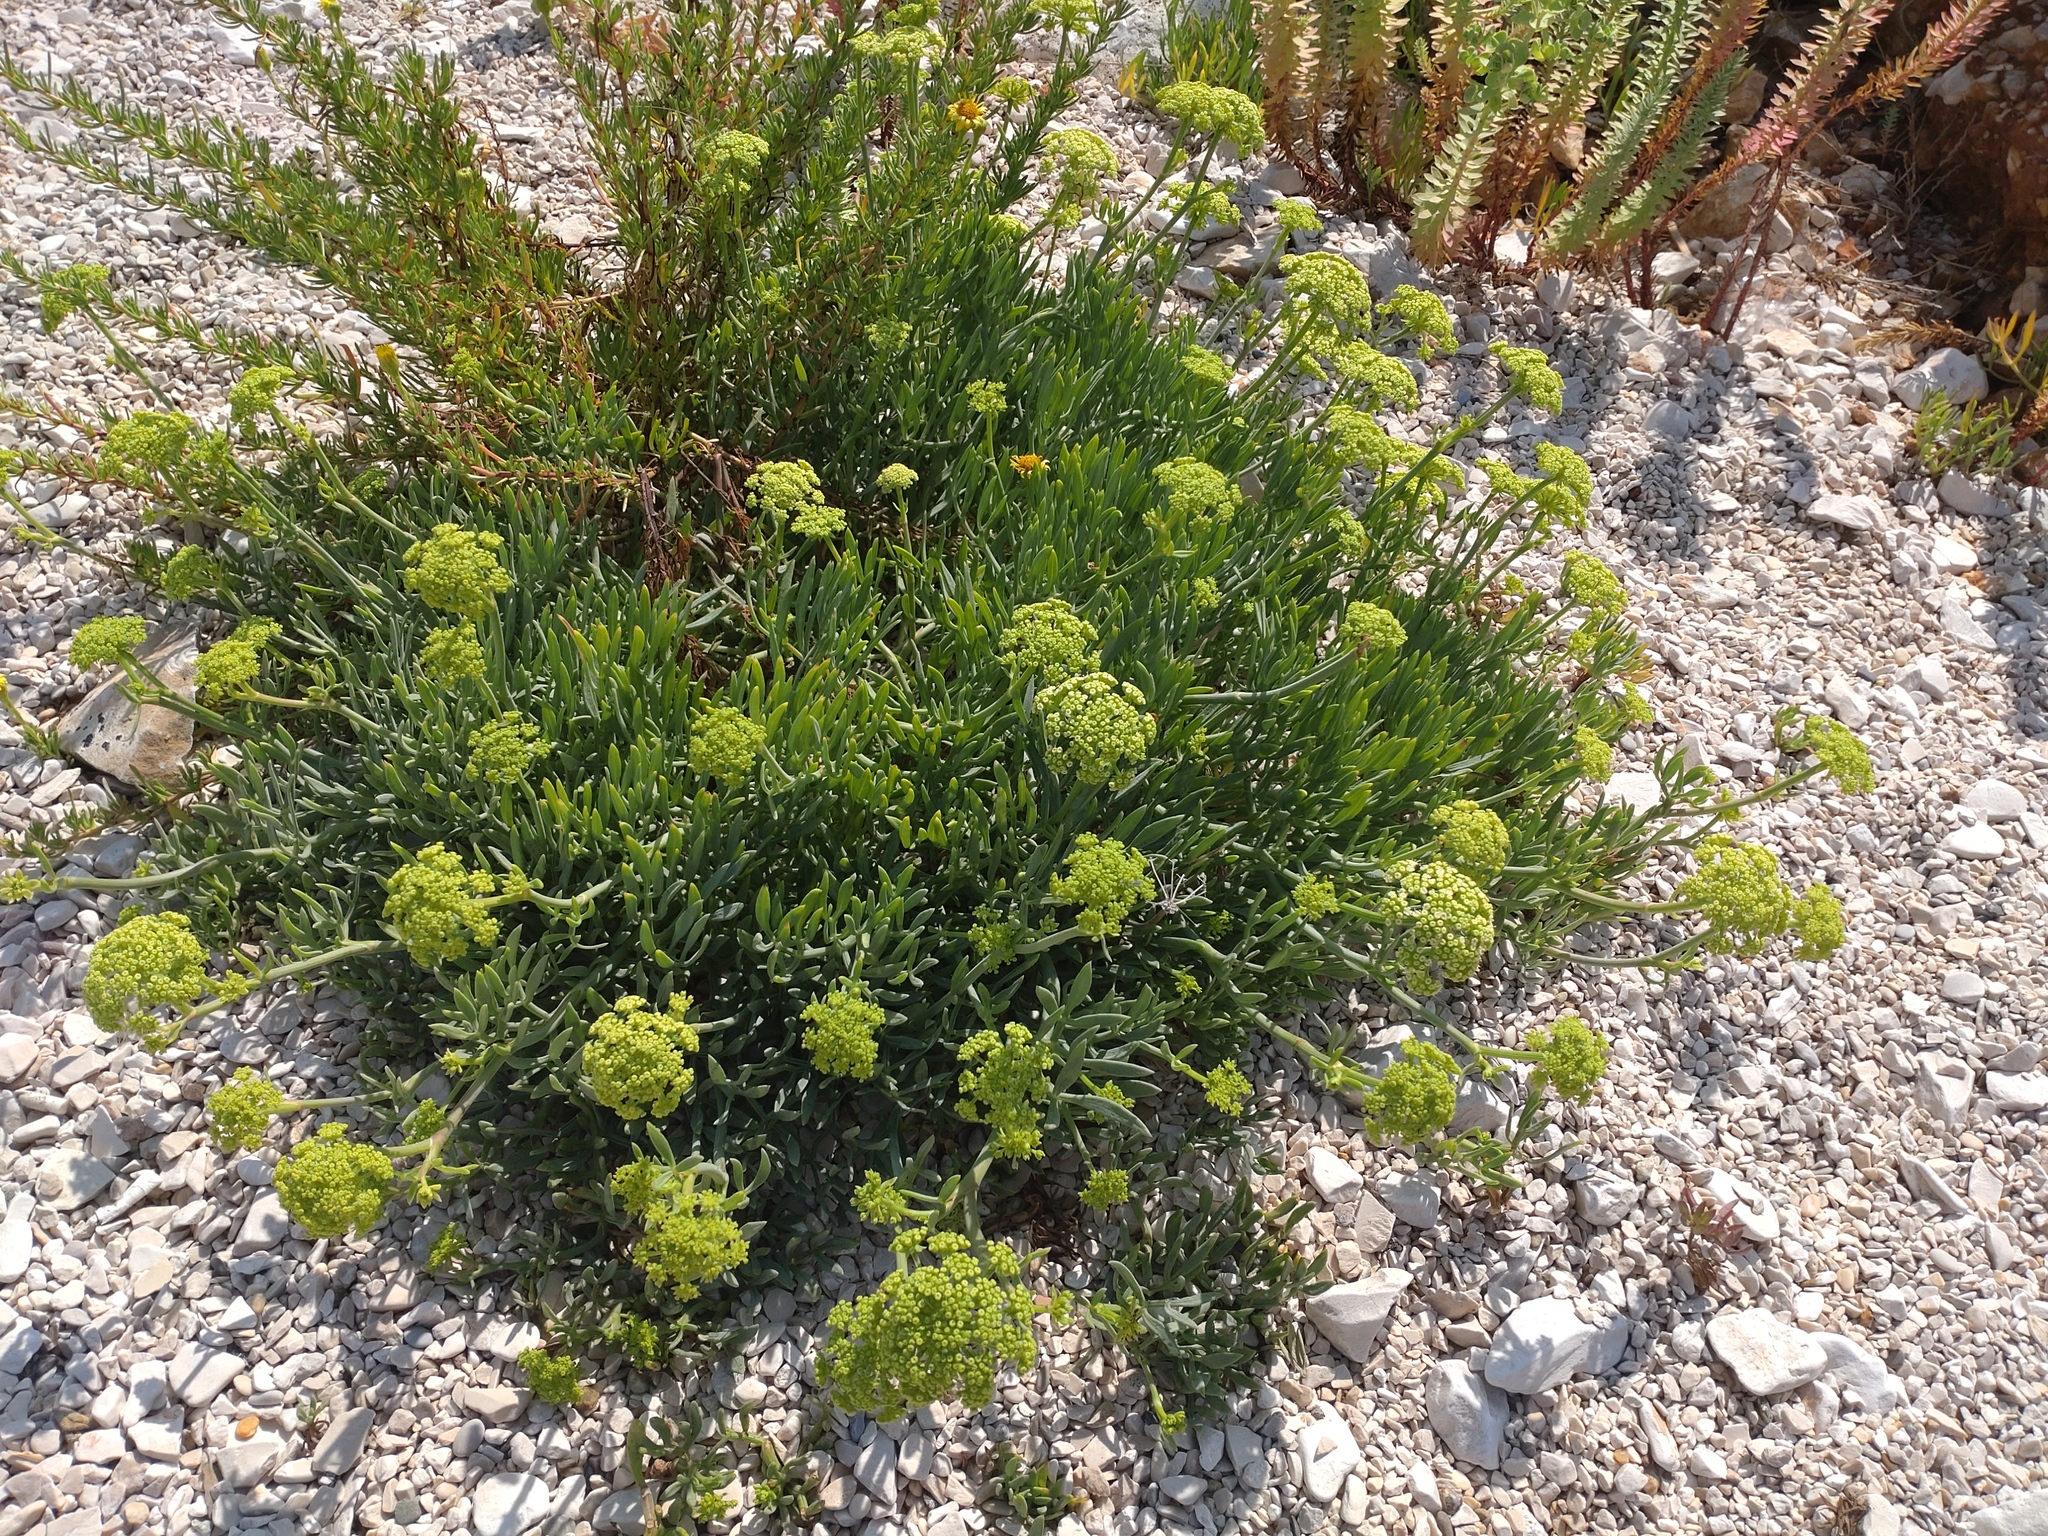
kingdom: Plantae
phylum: Tracheophyta
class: Magnoliopsida
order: Apiales
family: Apiaceae
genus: Crithmum
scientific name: Crithmum maritimum
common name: Rock samphire
